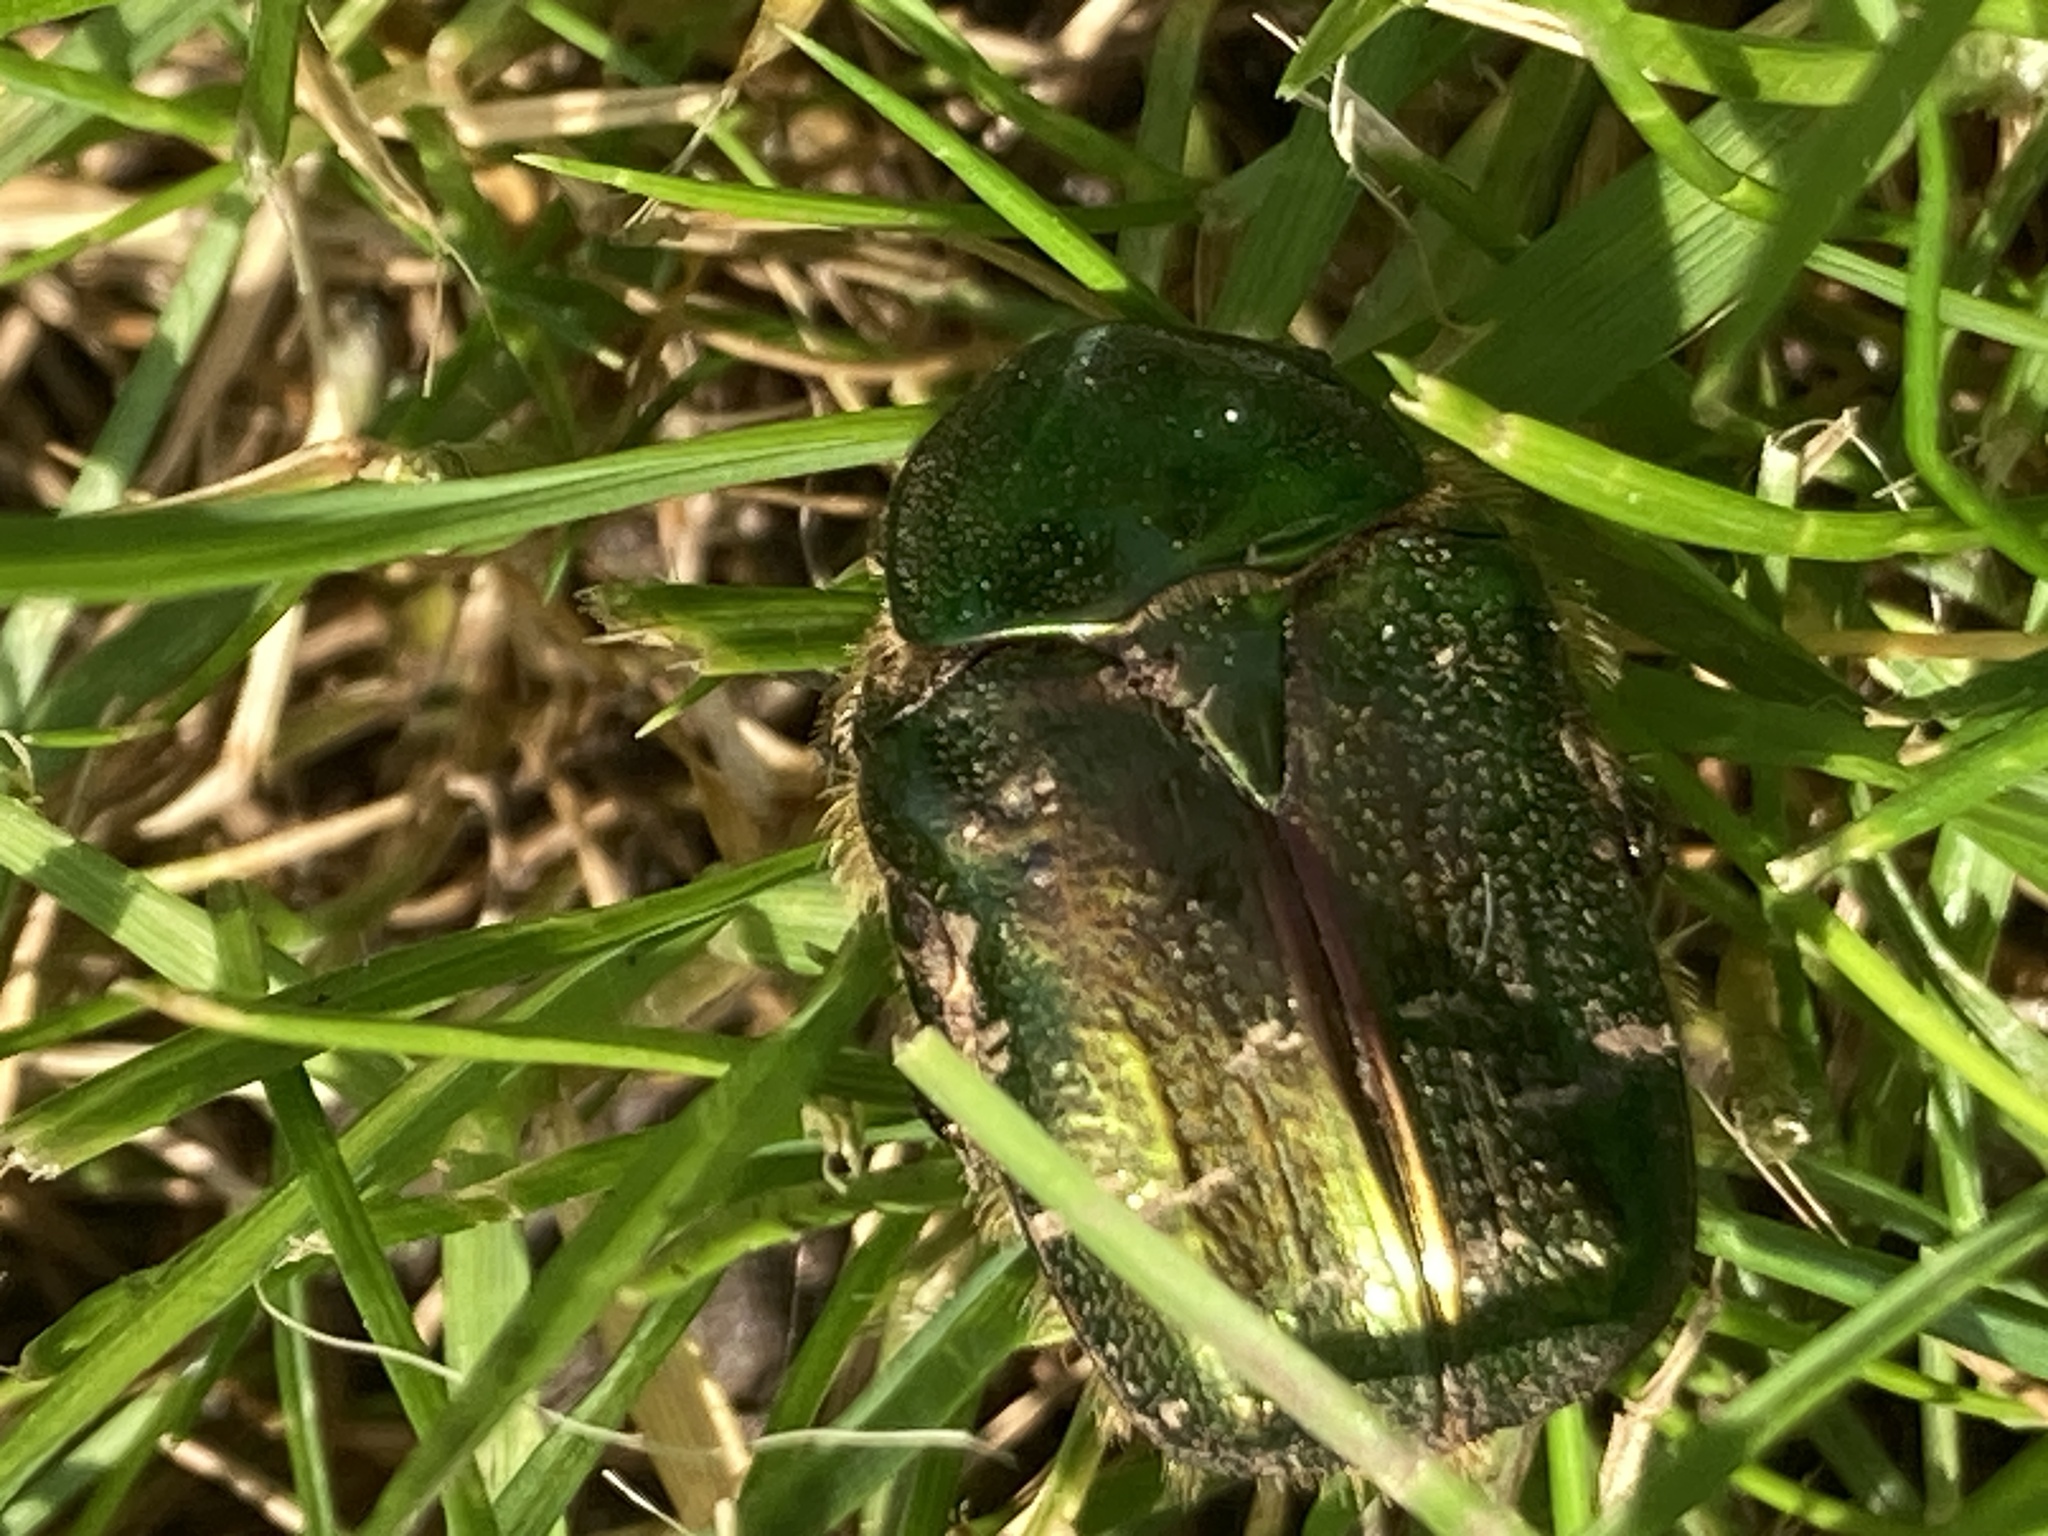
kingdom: Animalia
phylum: Arthropoda
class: Insecta
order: Coleoptera
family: Scarabaeidae
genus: Cetonia
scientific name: Cetonia aurata
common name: Rose chafer
